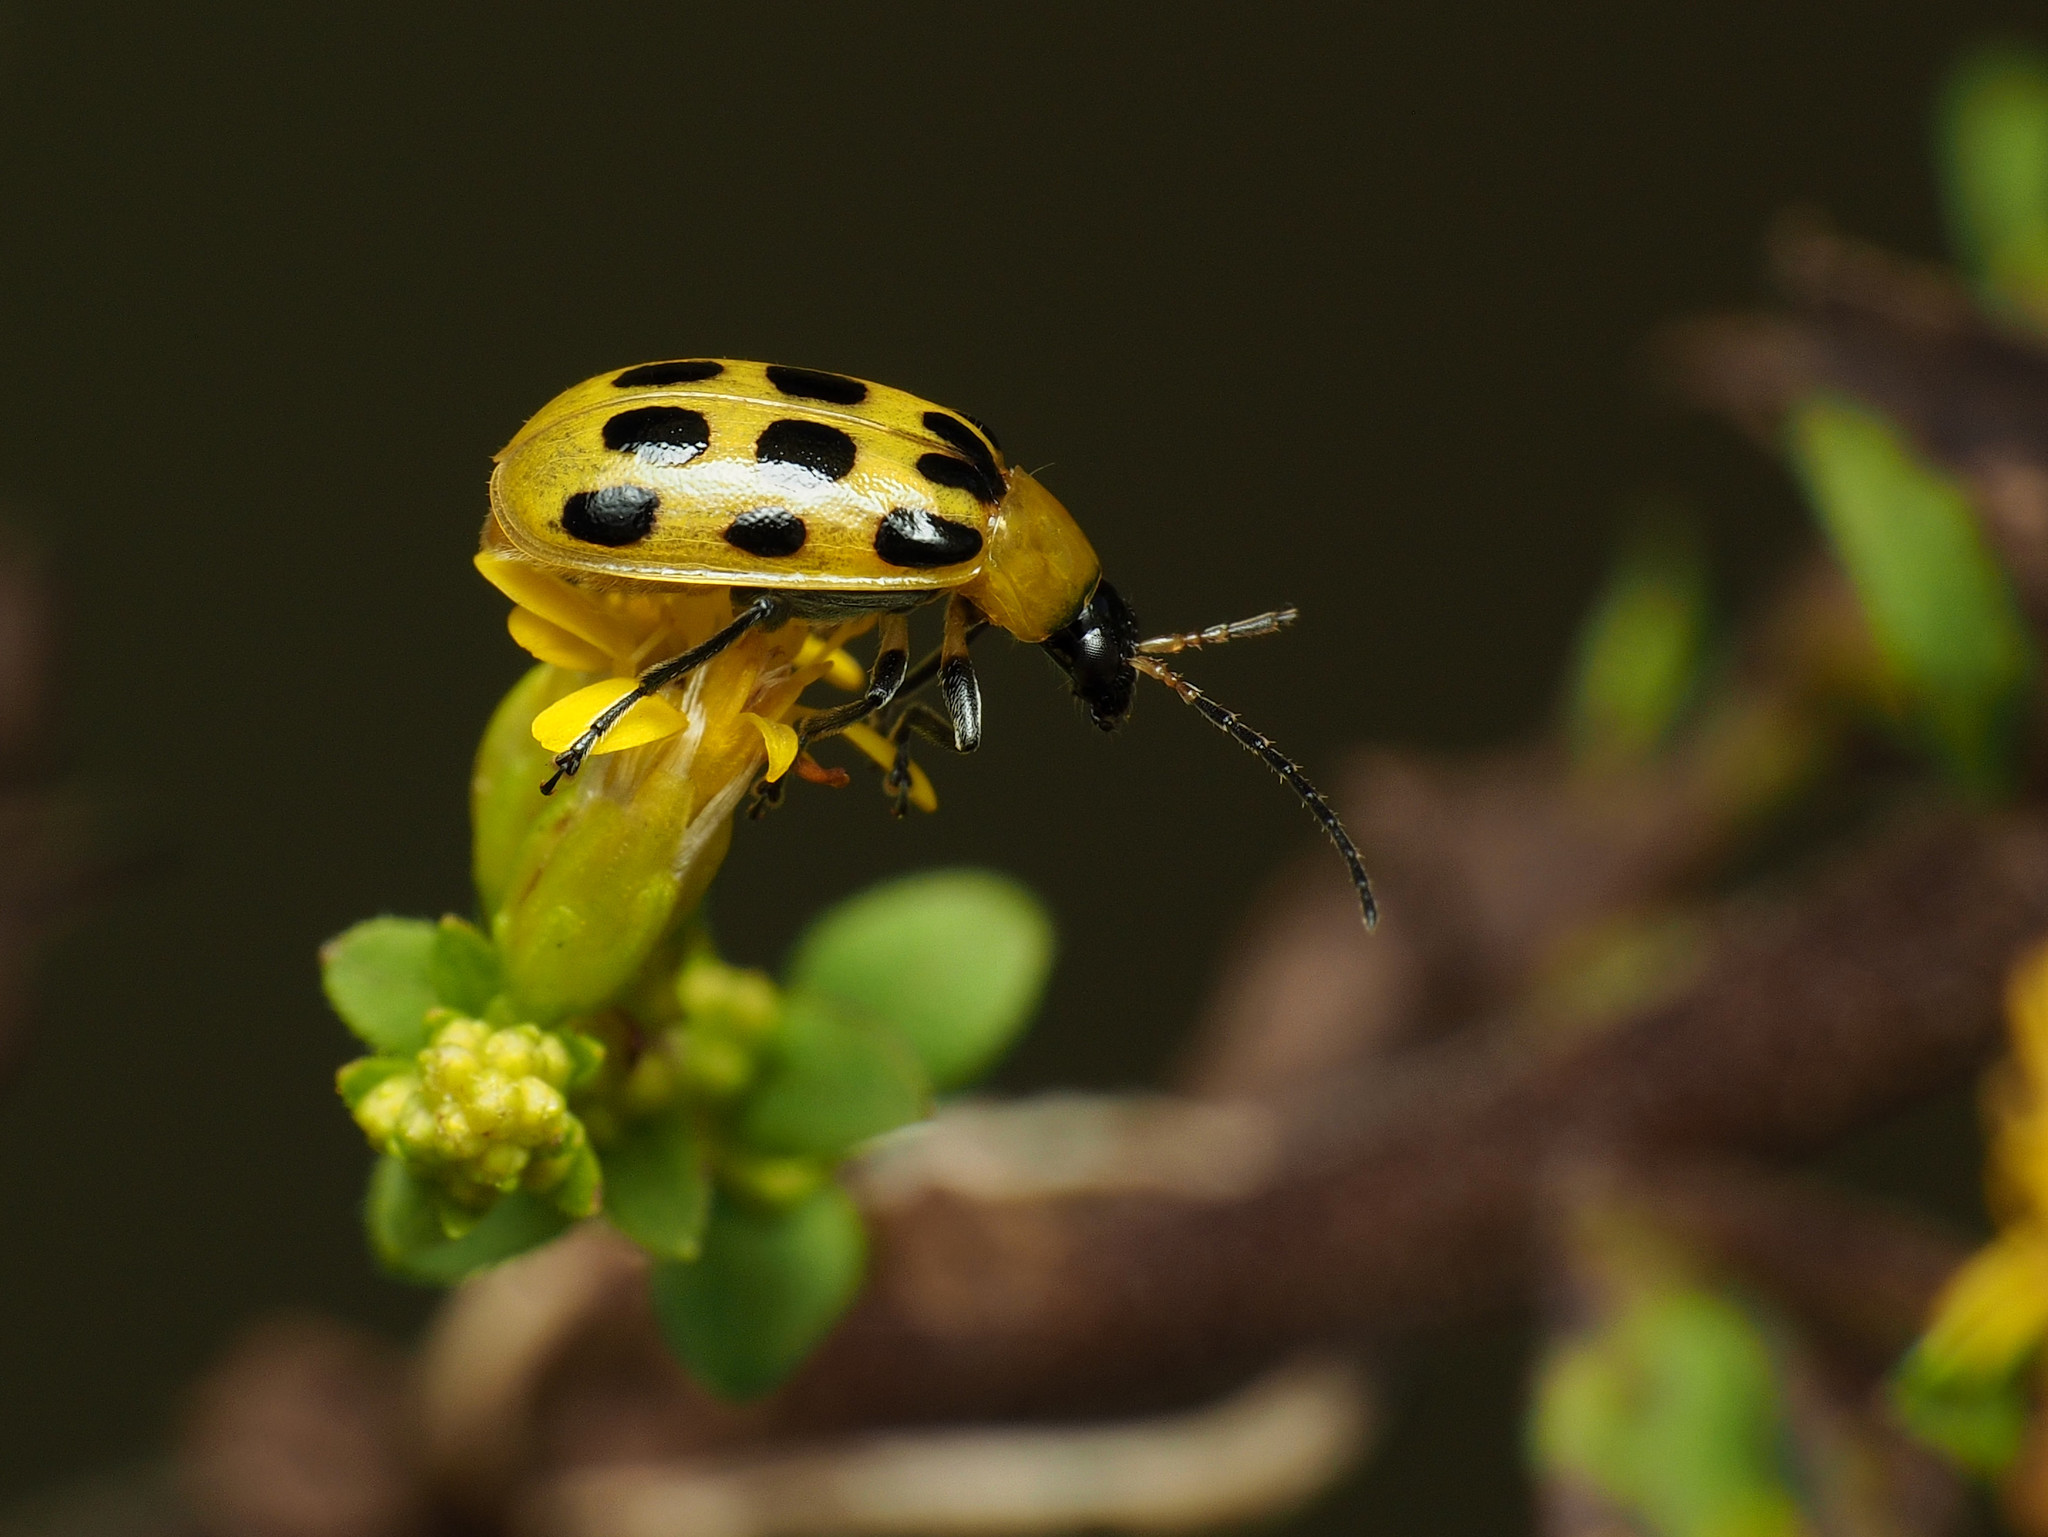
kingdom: Animalia
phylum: Arthropoda
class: Insecta
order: Coleoptera
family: Chrysomelidae
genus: Diabrotica
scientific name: Diabrotica undecimpunctata
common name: Spotted cucumber beetle
